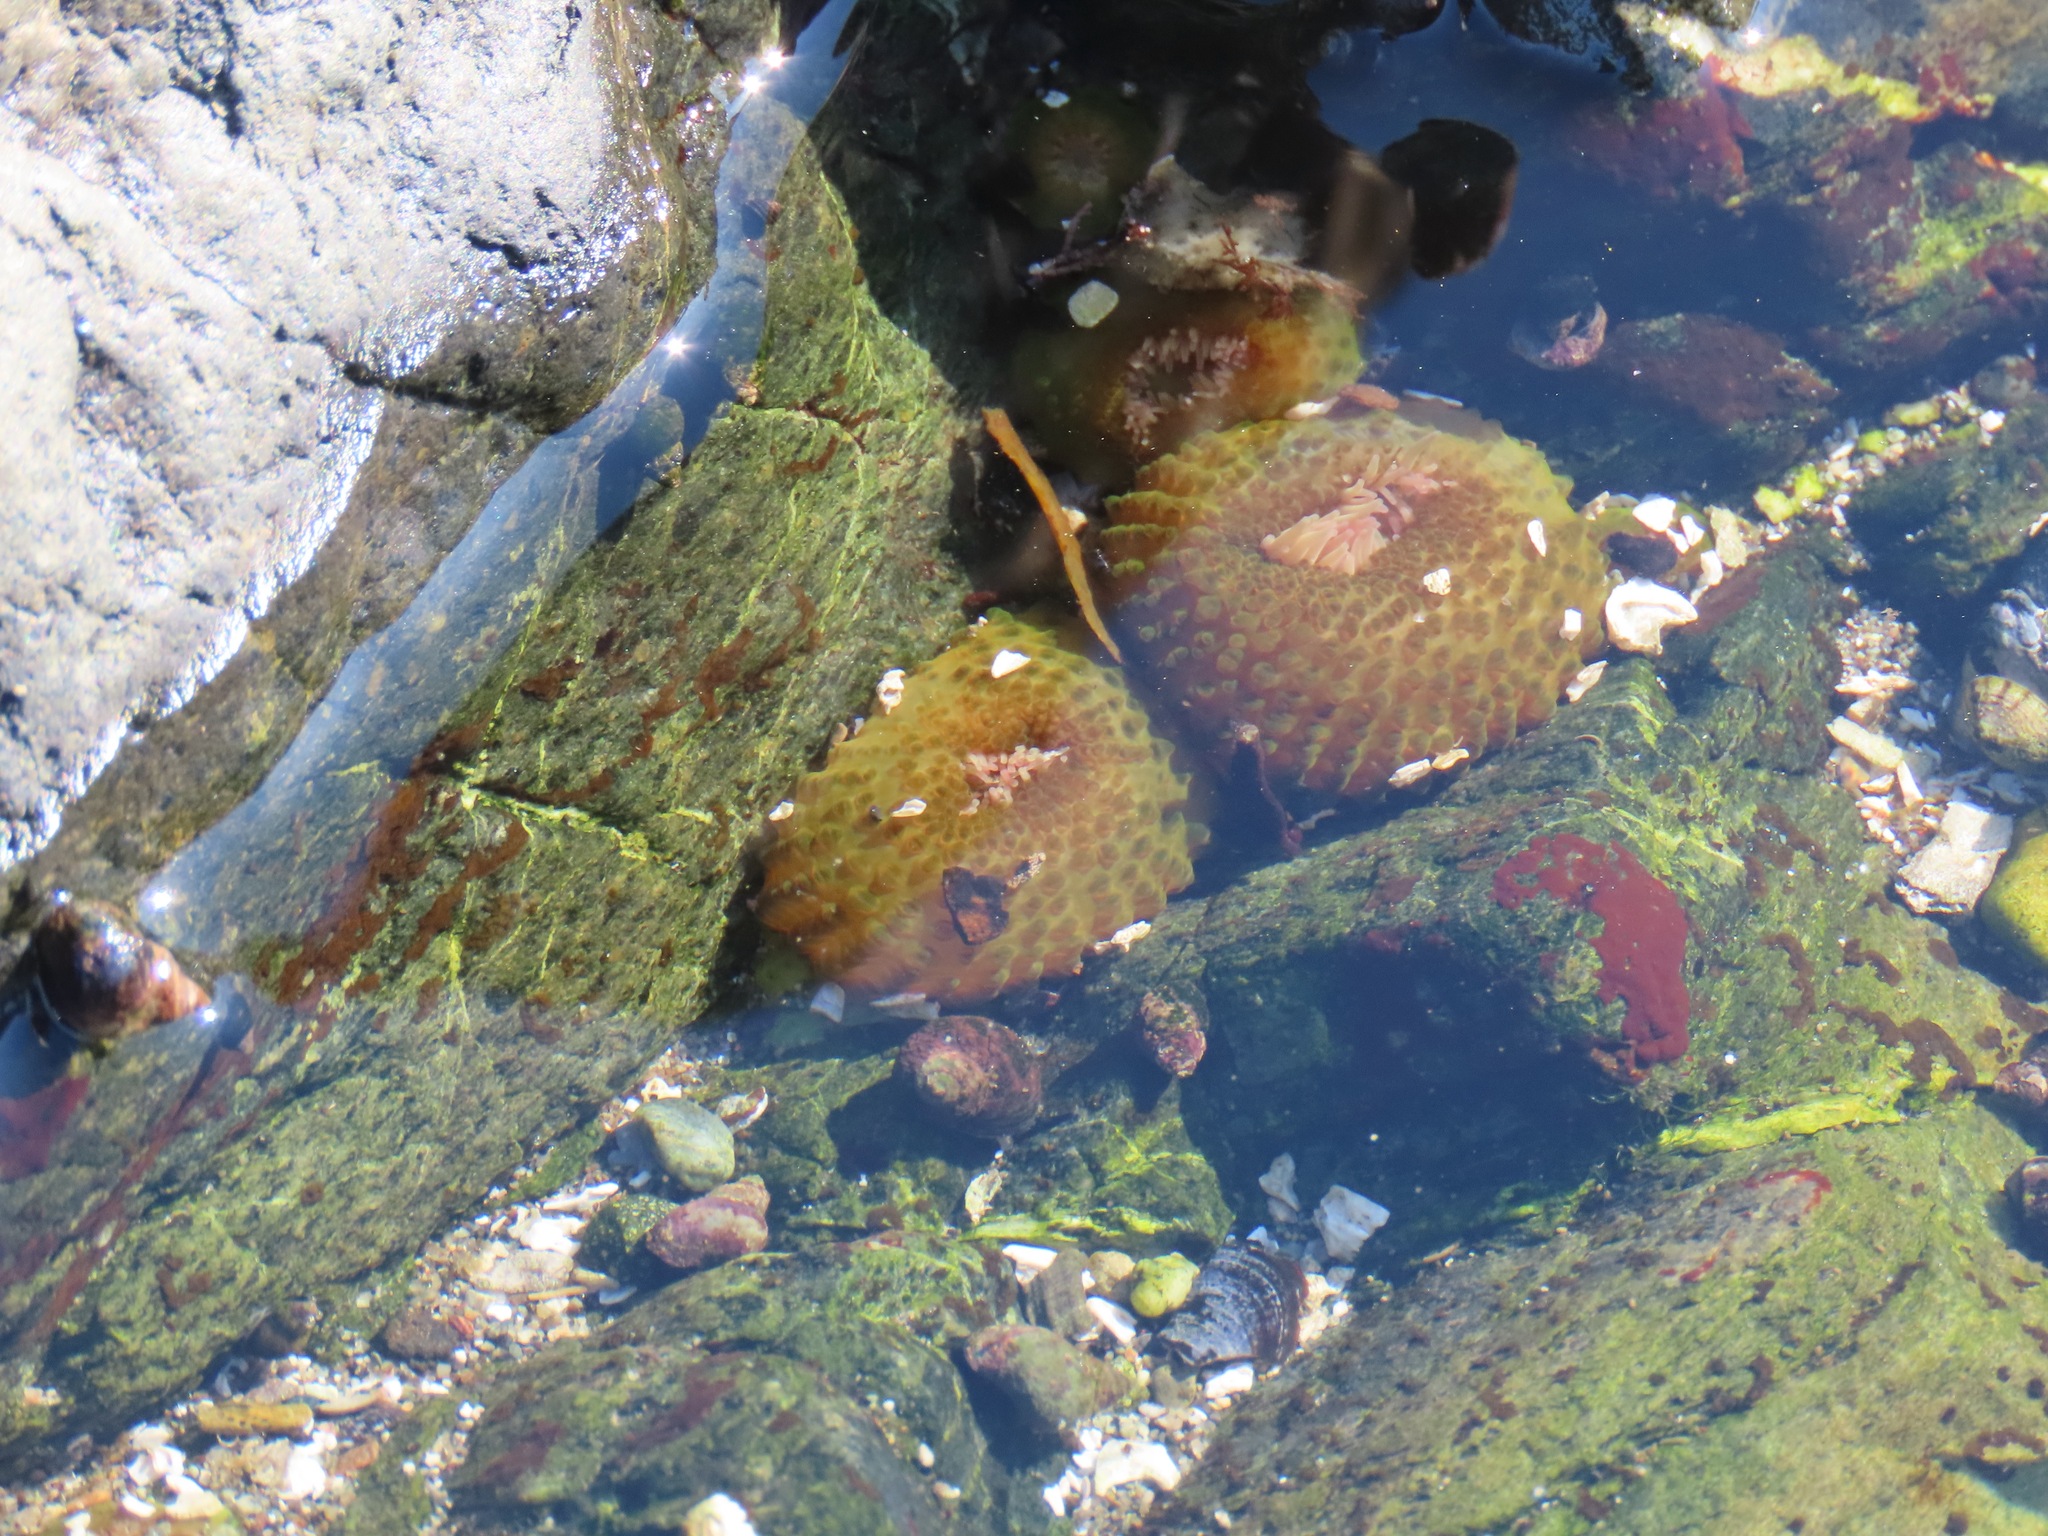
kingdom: Animalia
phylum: Cnidaria
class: Anthozoa
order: Actiniaria
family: Actiniidae
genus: Anthopleura
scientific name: Anthopleura elegantissima
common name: Clonal anemone
